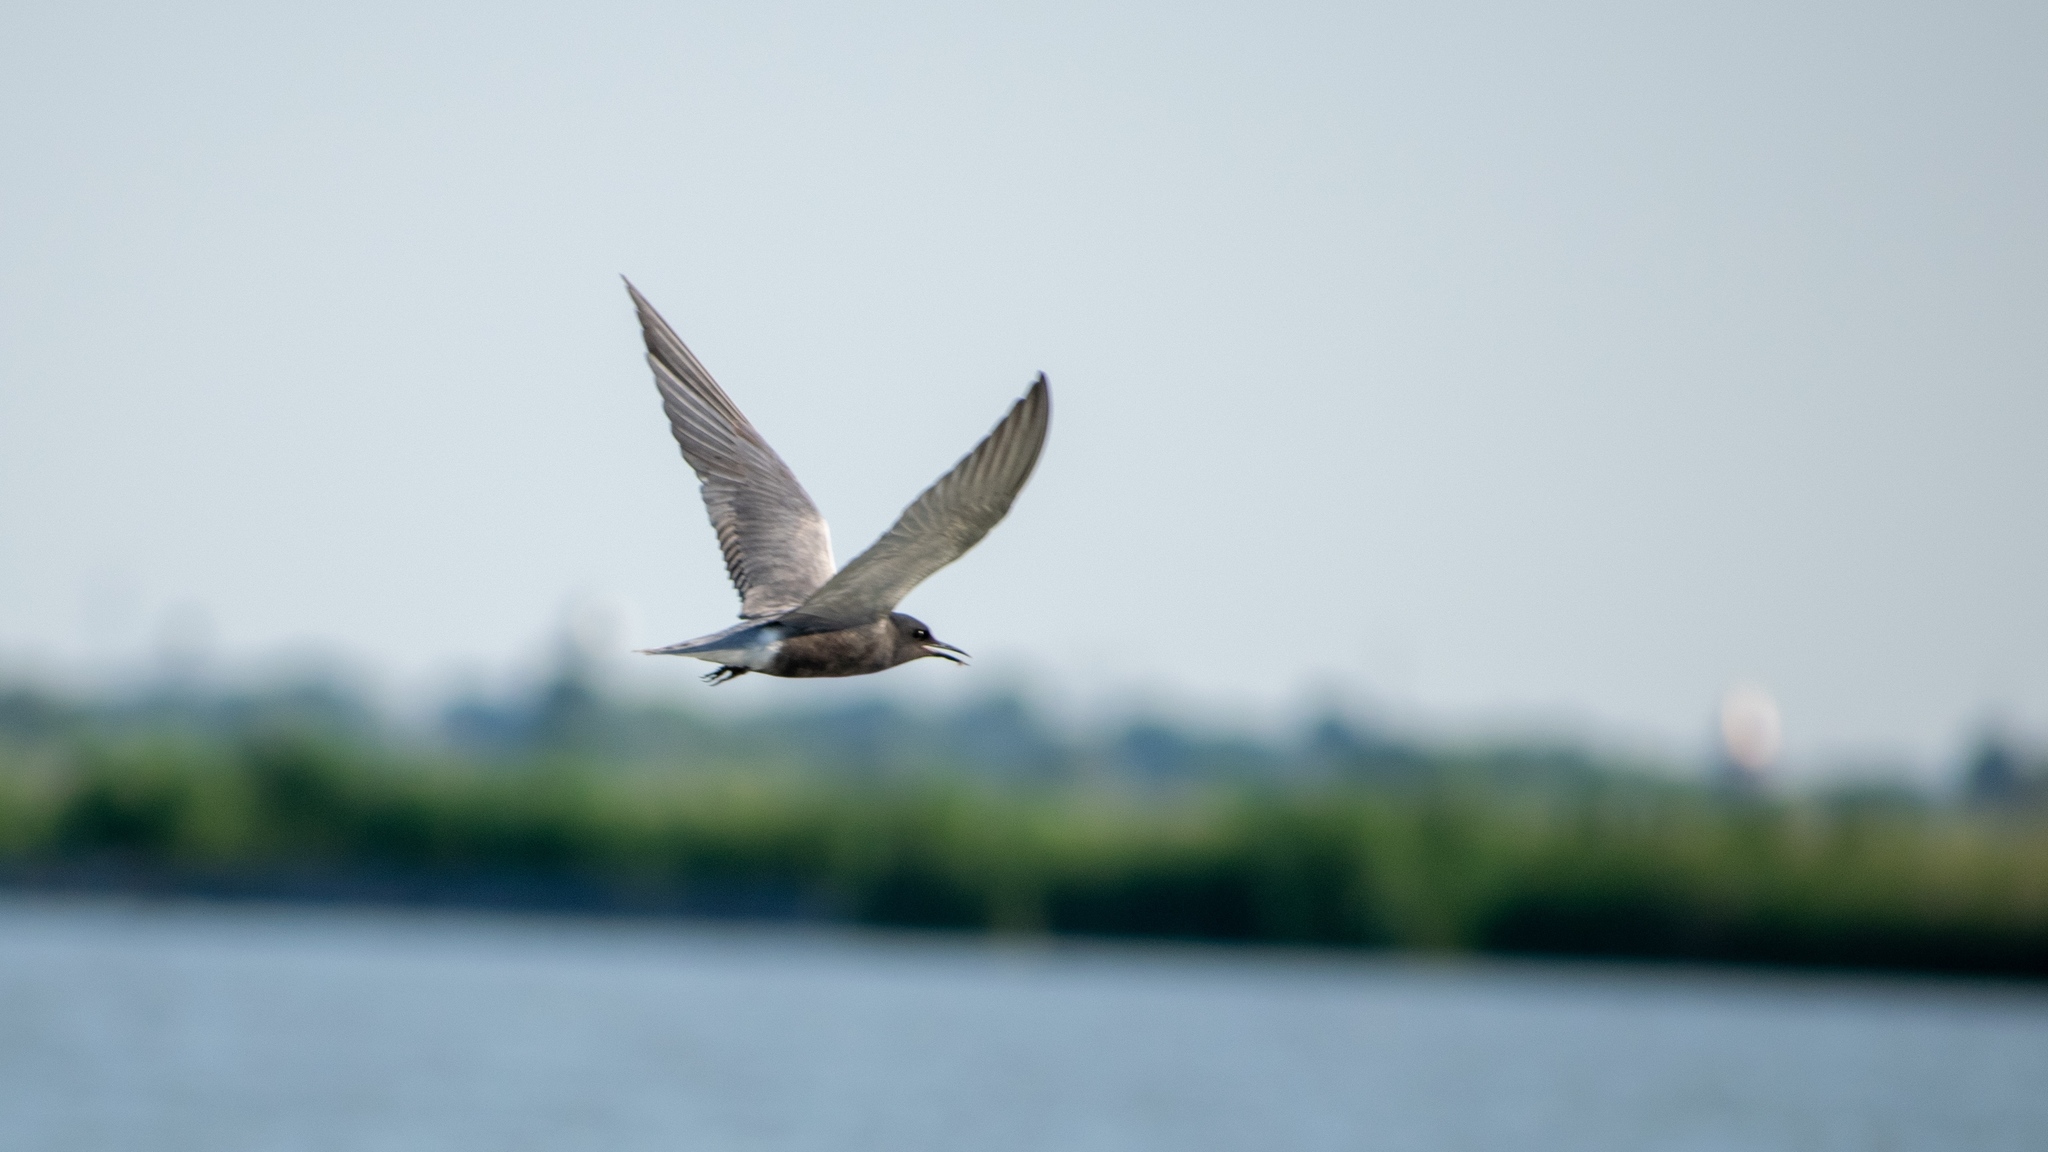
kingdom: Animalia
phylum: Chordata
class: Aves
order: Charadriiformes
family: Laridae
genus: Chlidonias
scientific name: Chlidonias niger
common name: Black tern
